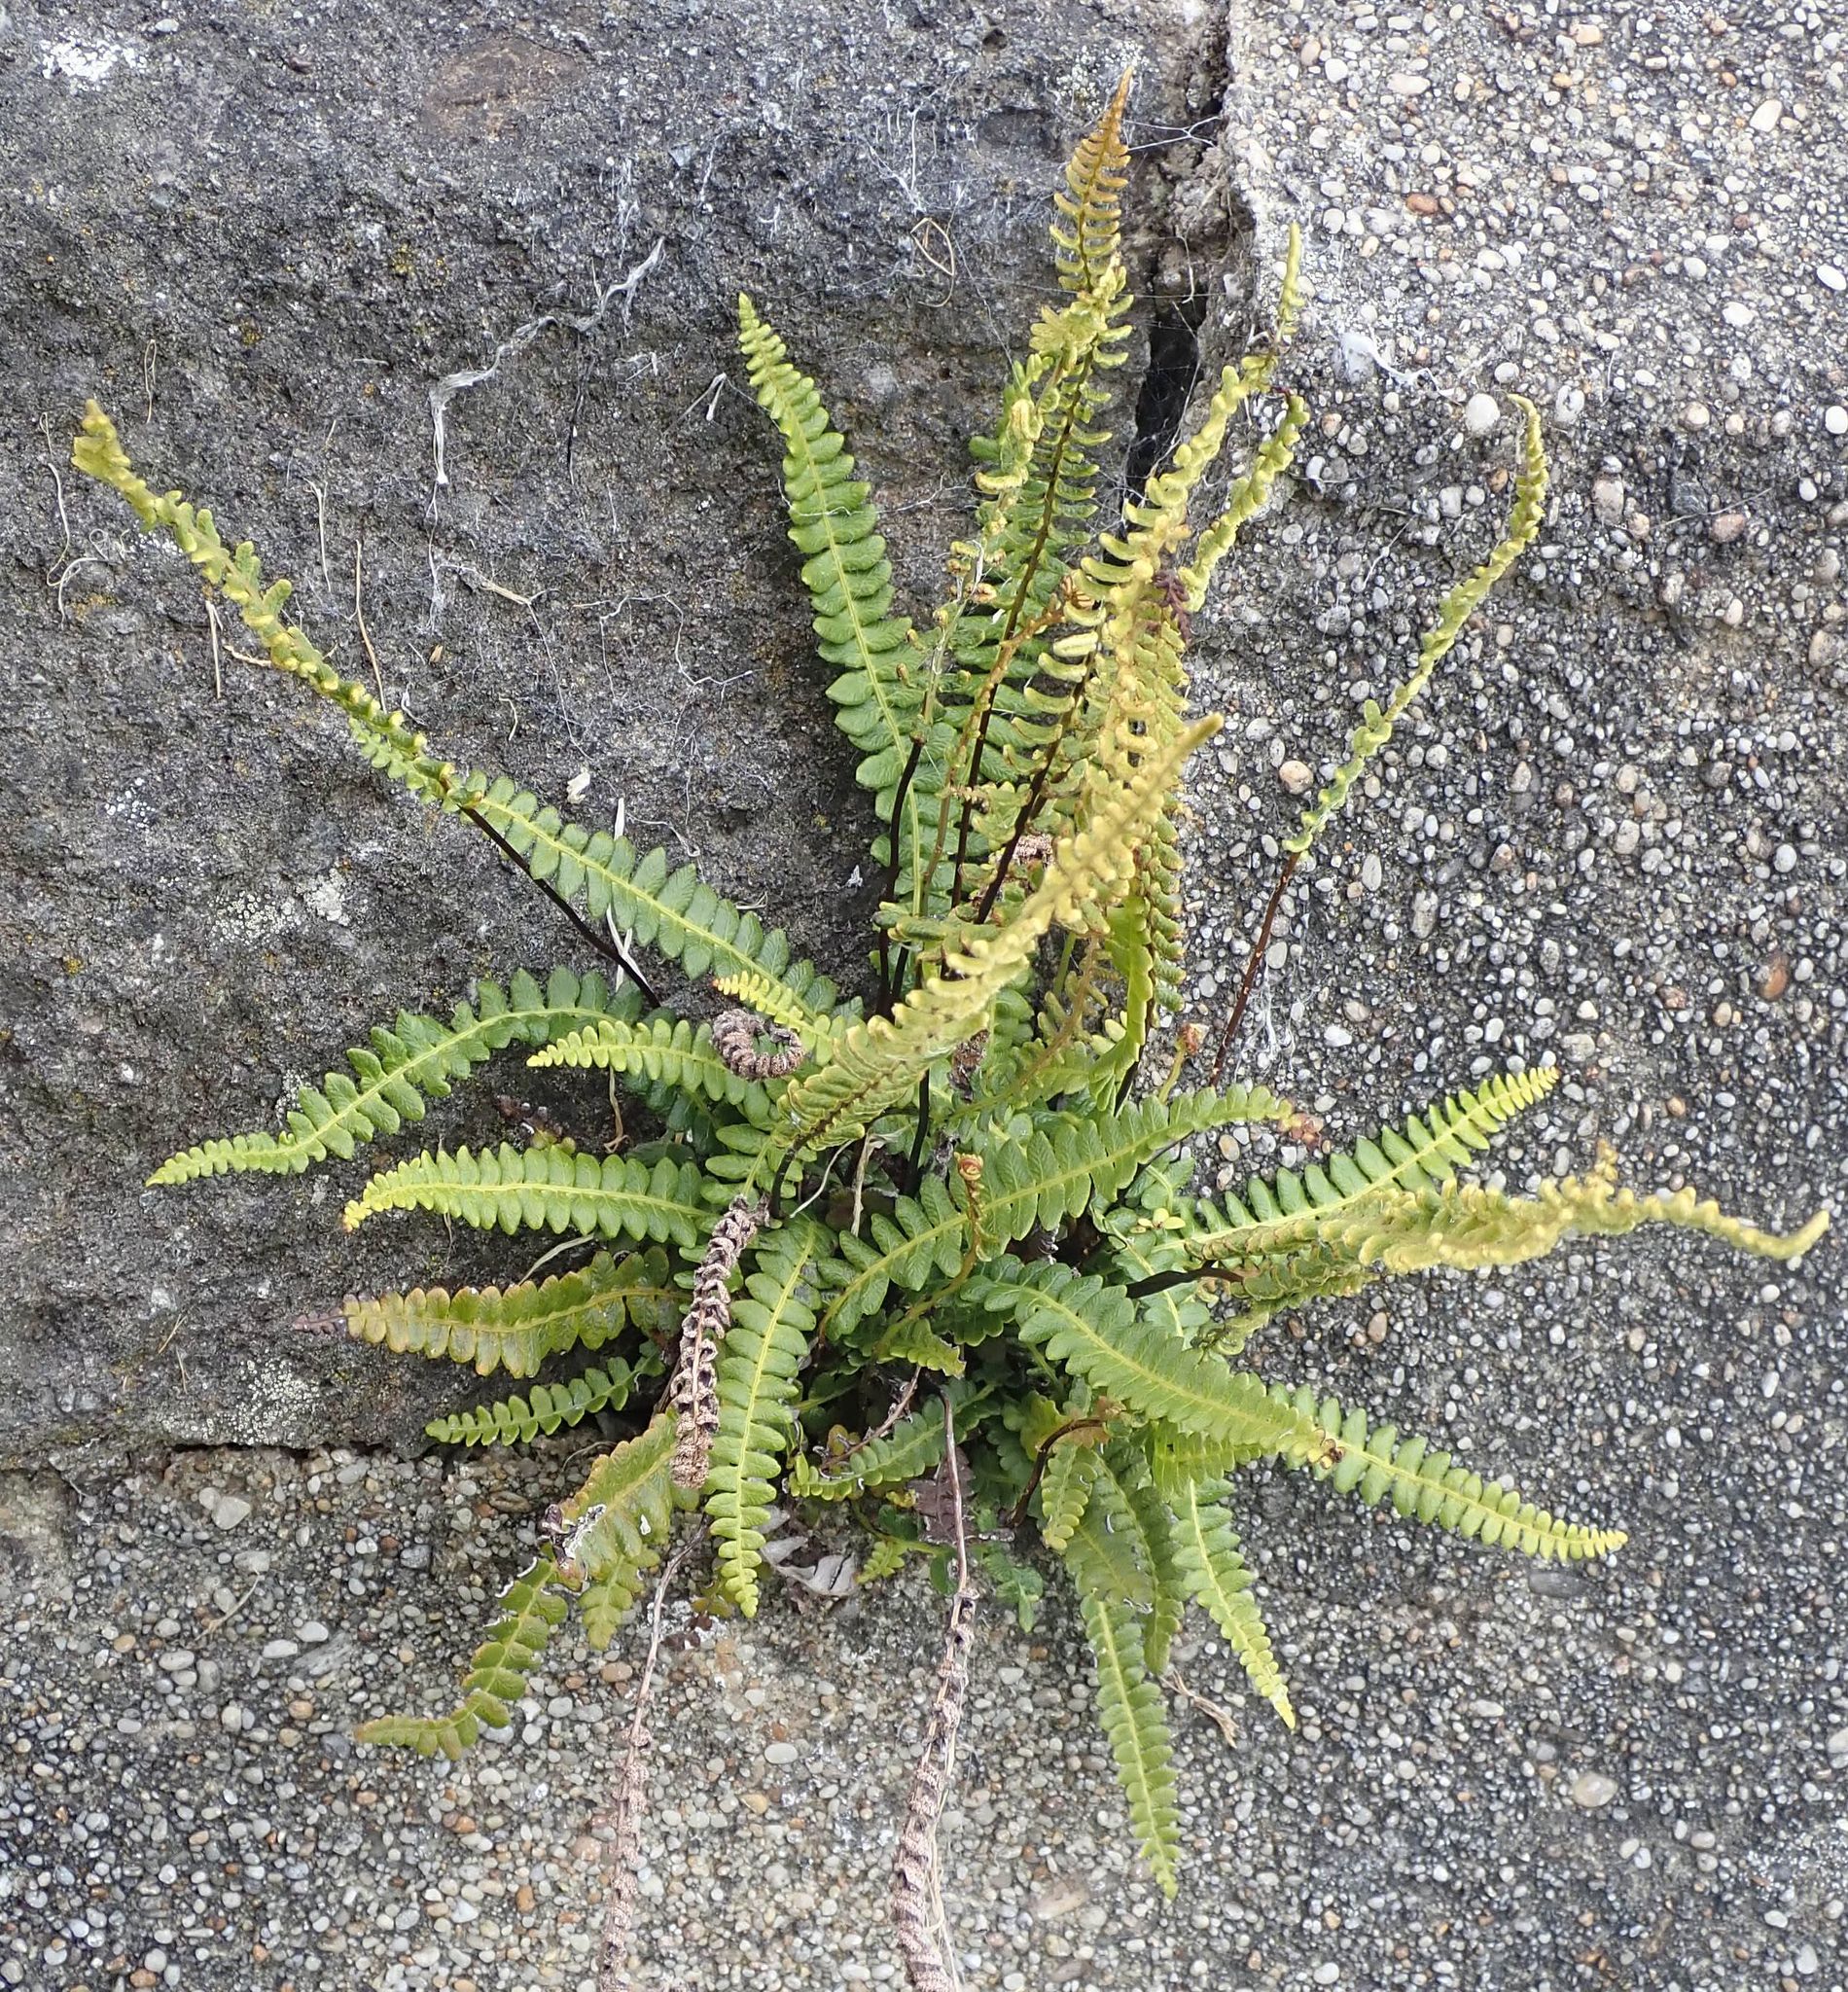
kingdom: Plantae
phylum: Tracheophyta
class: Polypodiopsida
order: Polypodiales
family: Blechnaceae
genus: Austroblechnum
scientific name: Austroblechnum penna-marina
